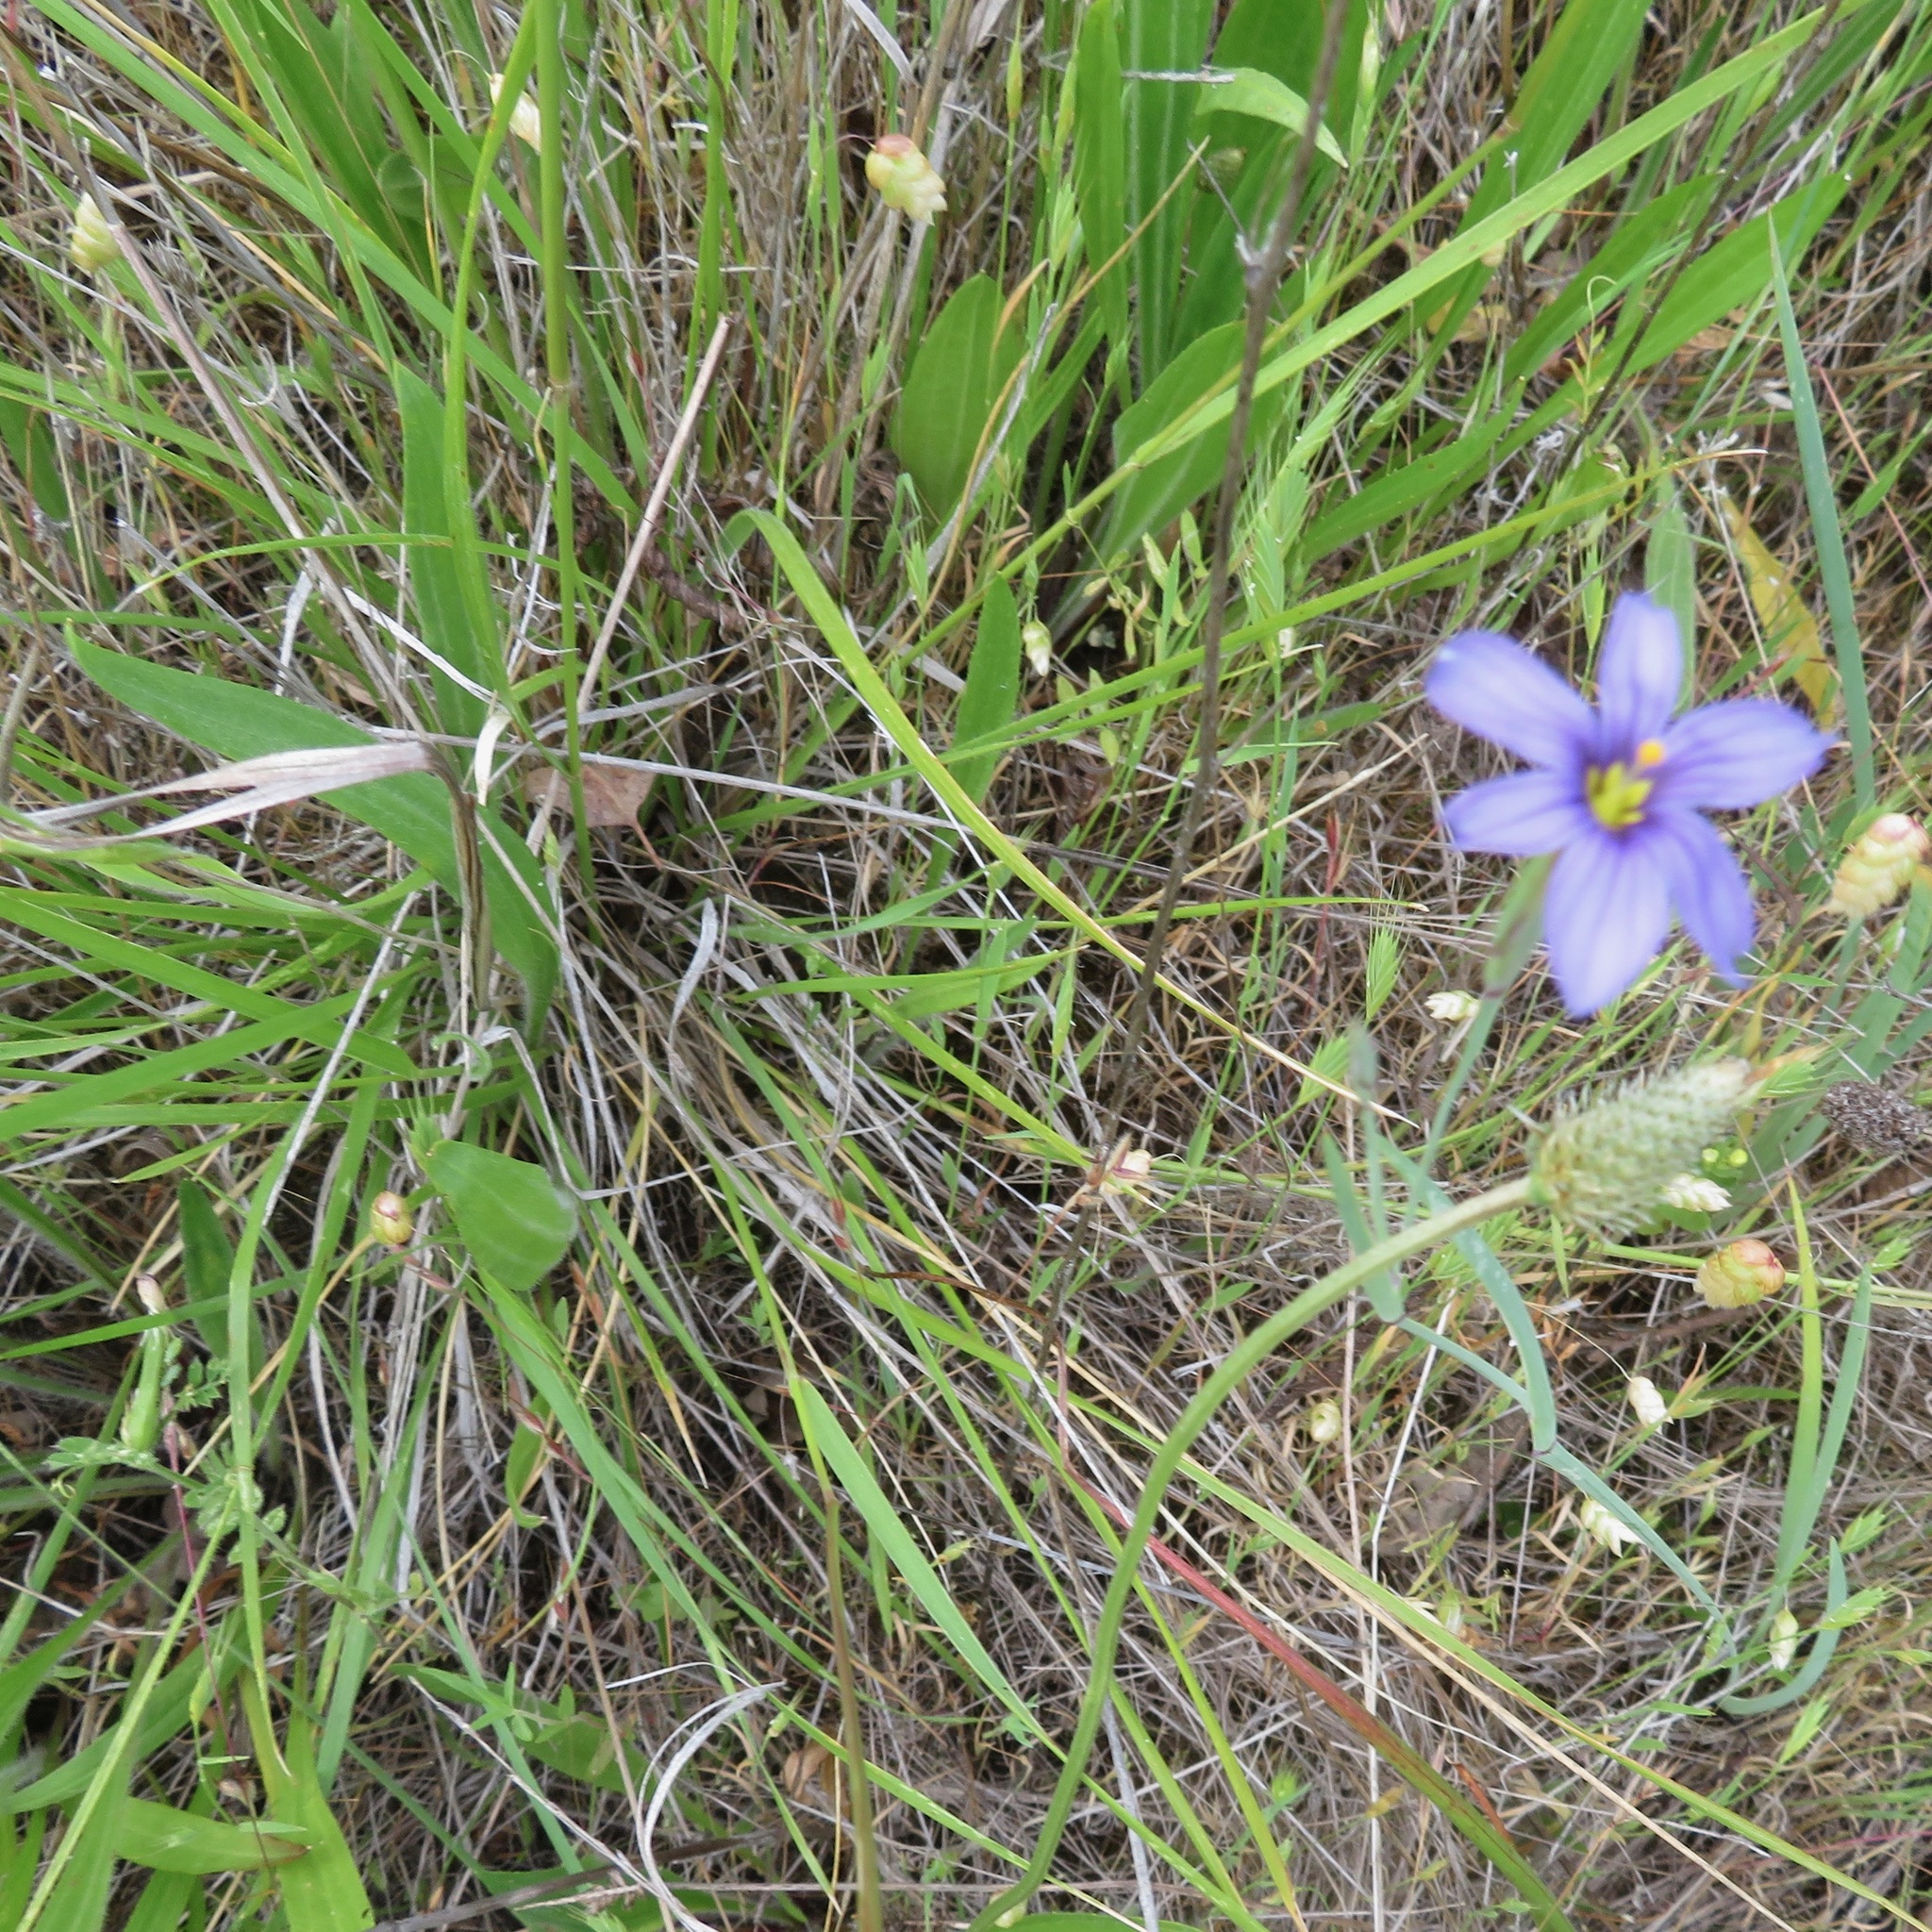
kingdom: Plantae
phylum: Tracheophyta
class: Liliopsida
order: Asparagales
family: Iridaceae
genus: Sisyrinchium
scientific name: Sisyrinchium bellum
